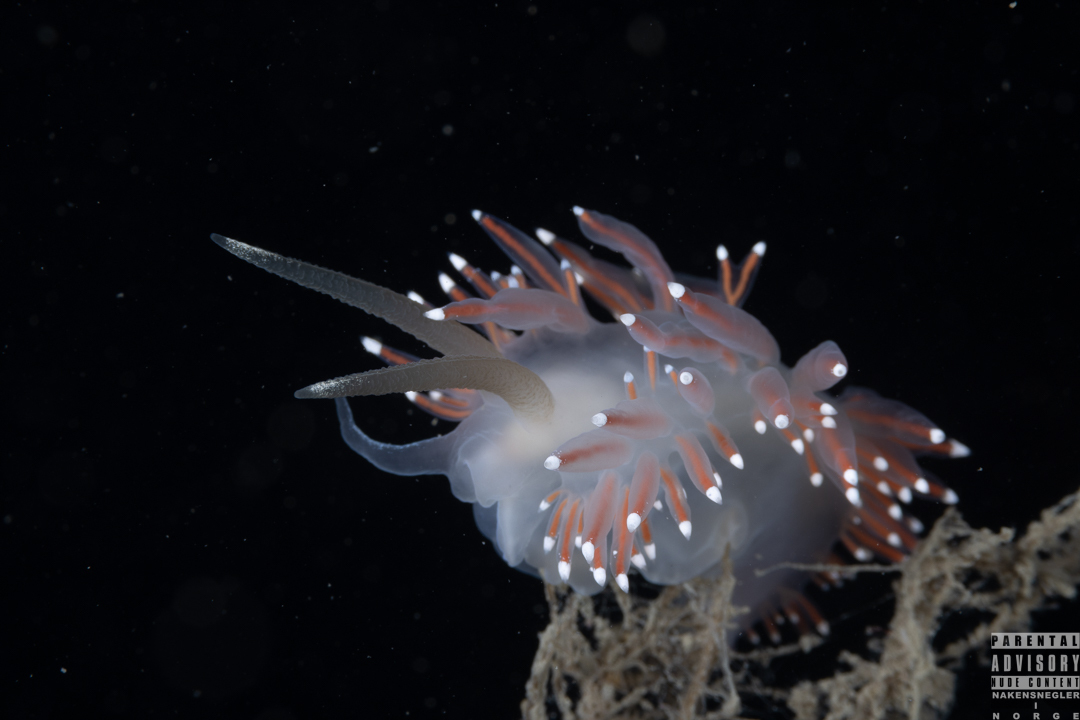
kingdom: Animalia
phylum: Mollusca
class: Gastropoda
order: Nudibranchia
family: Coryphellidae
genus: Coryphella
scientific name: Coryphella browni
